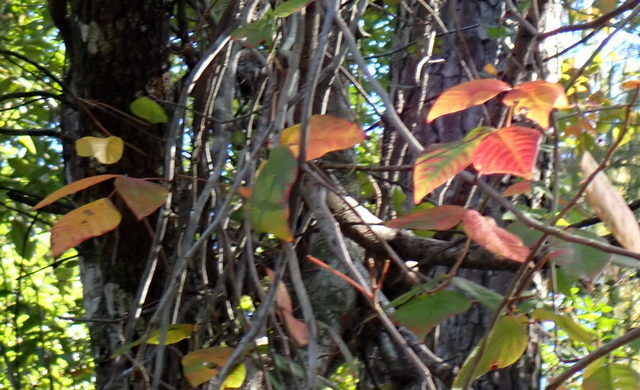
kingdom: Plantae
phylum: Tracheophyta
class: Magnoliopsida
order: Sapindales
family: Anacardiaceae
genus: Toxicodendron
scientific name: Toxicodendron radicans
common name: Poison ivy
